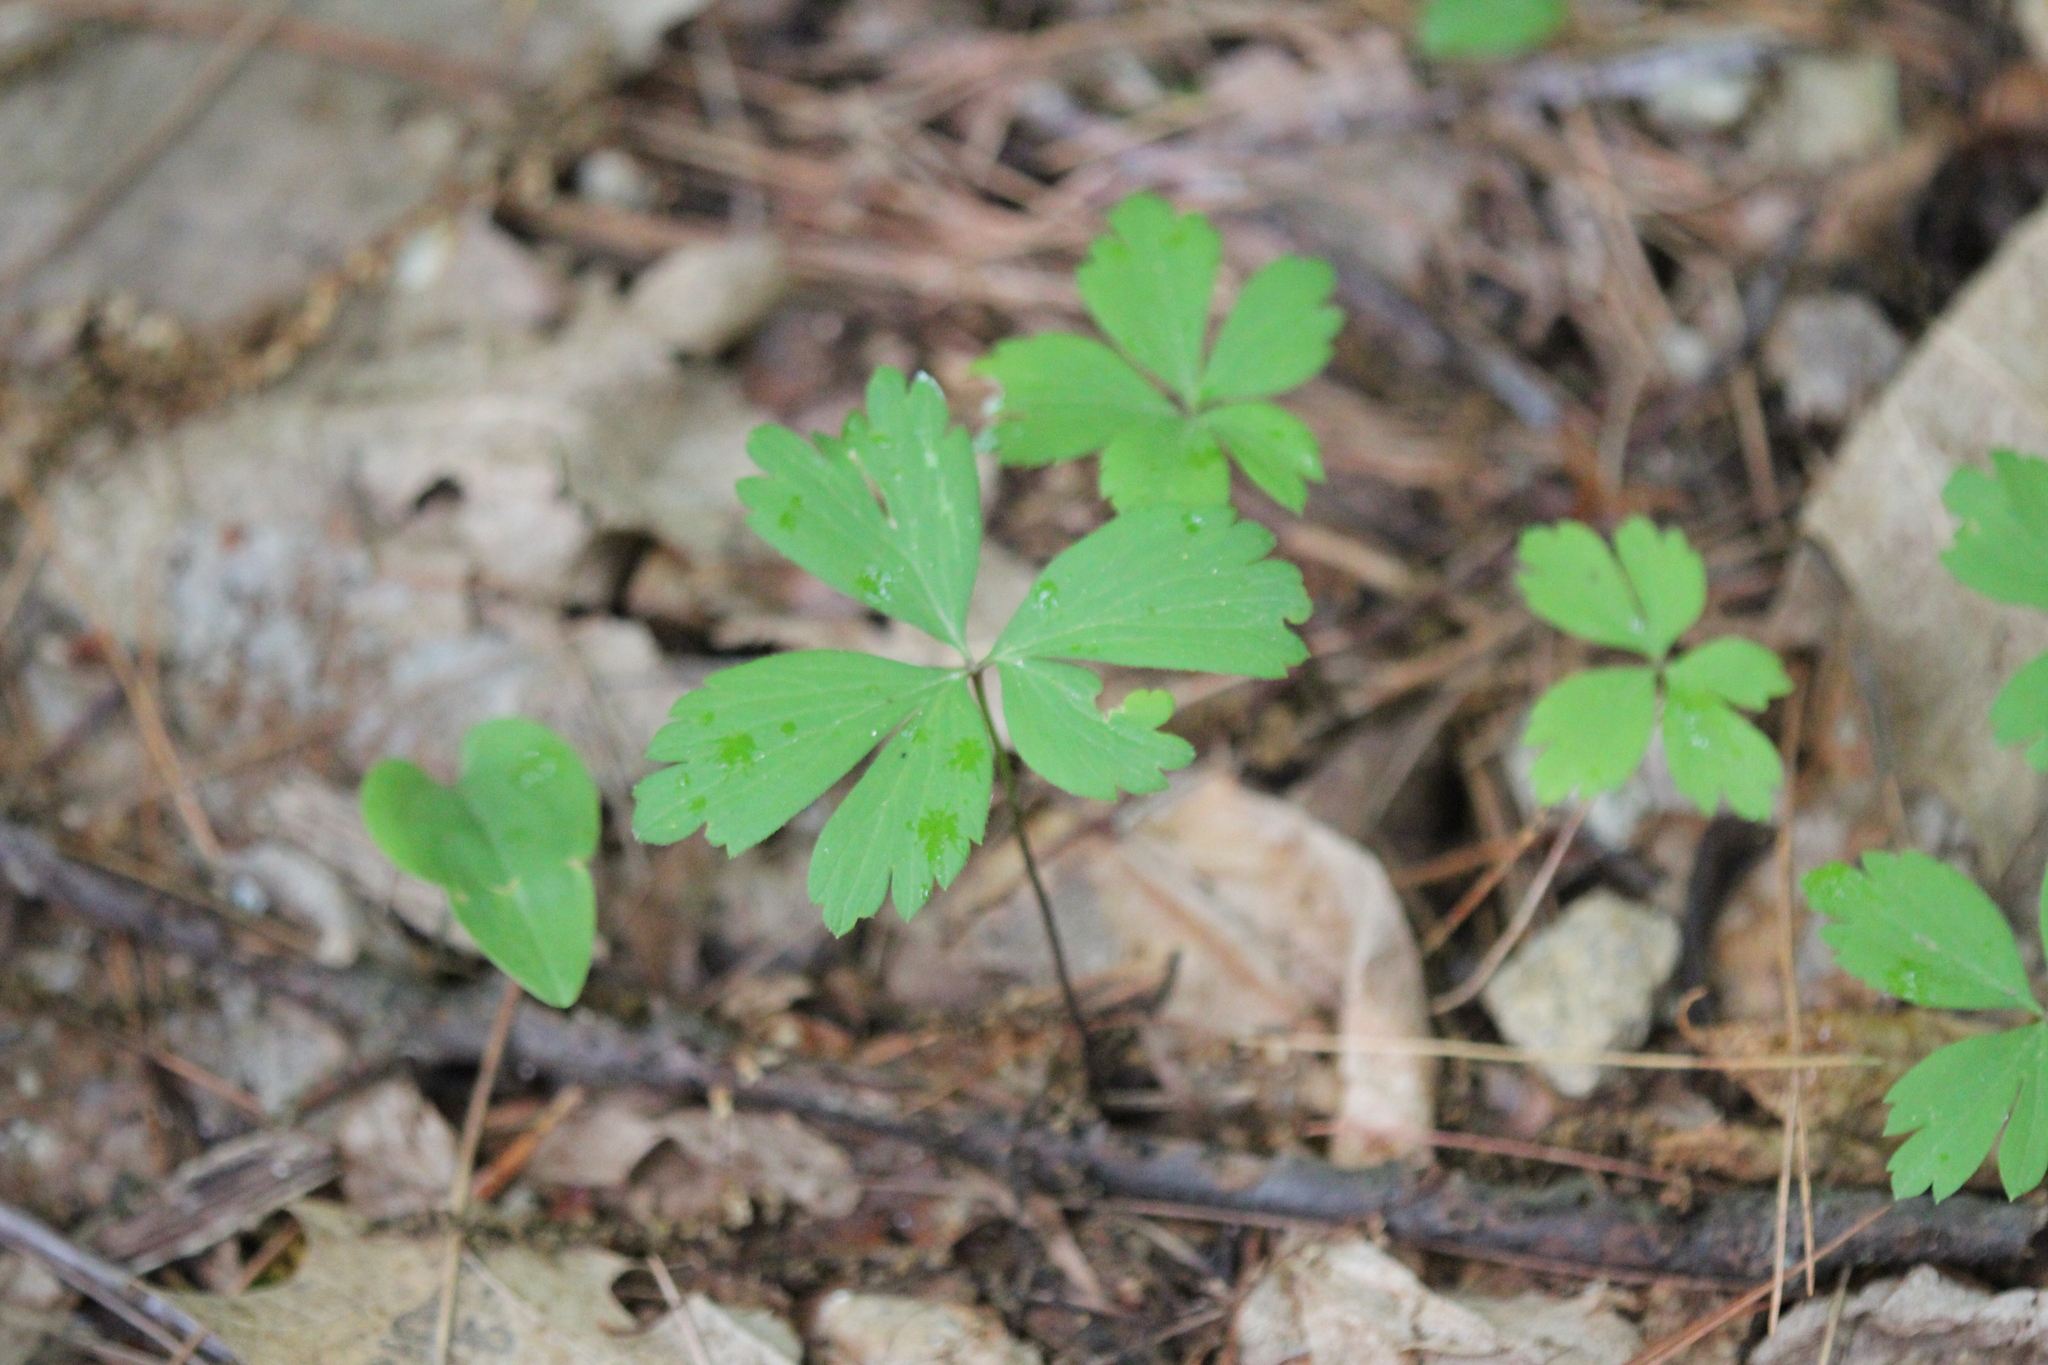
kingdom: Plantae
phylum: Tracheophyta
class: Magnoliopsida
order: Ranunculales
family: Ranunculaceae
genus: Anemone
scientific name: Anemone quinquefolia
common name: Wood anemone
